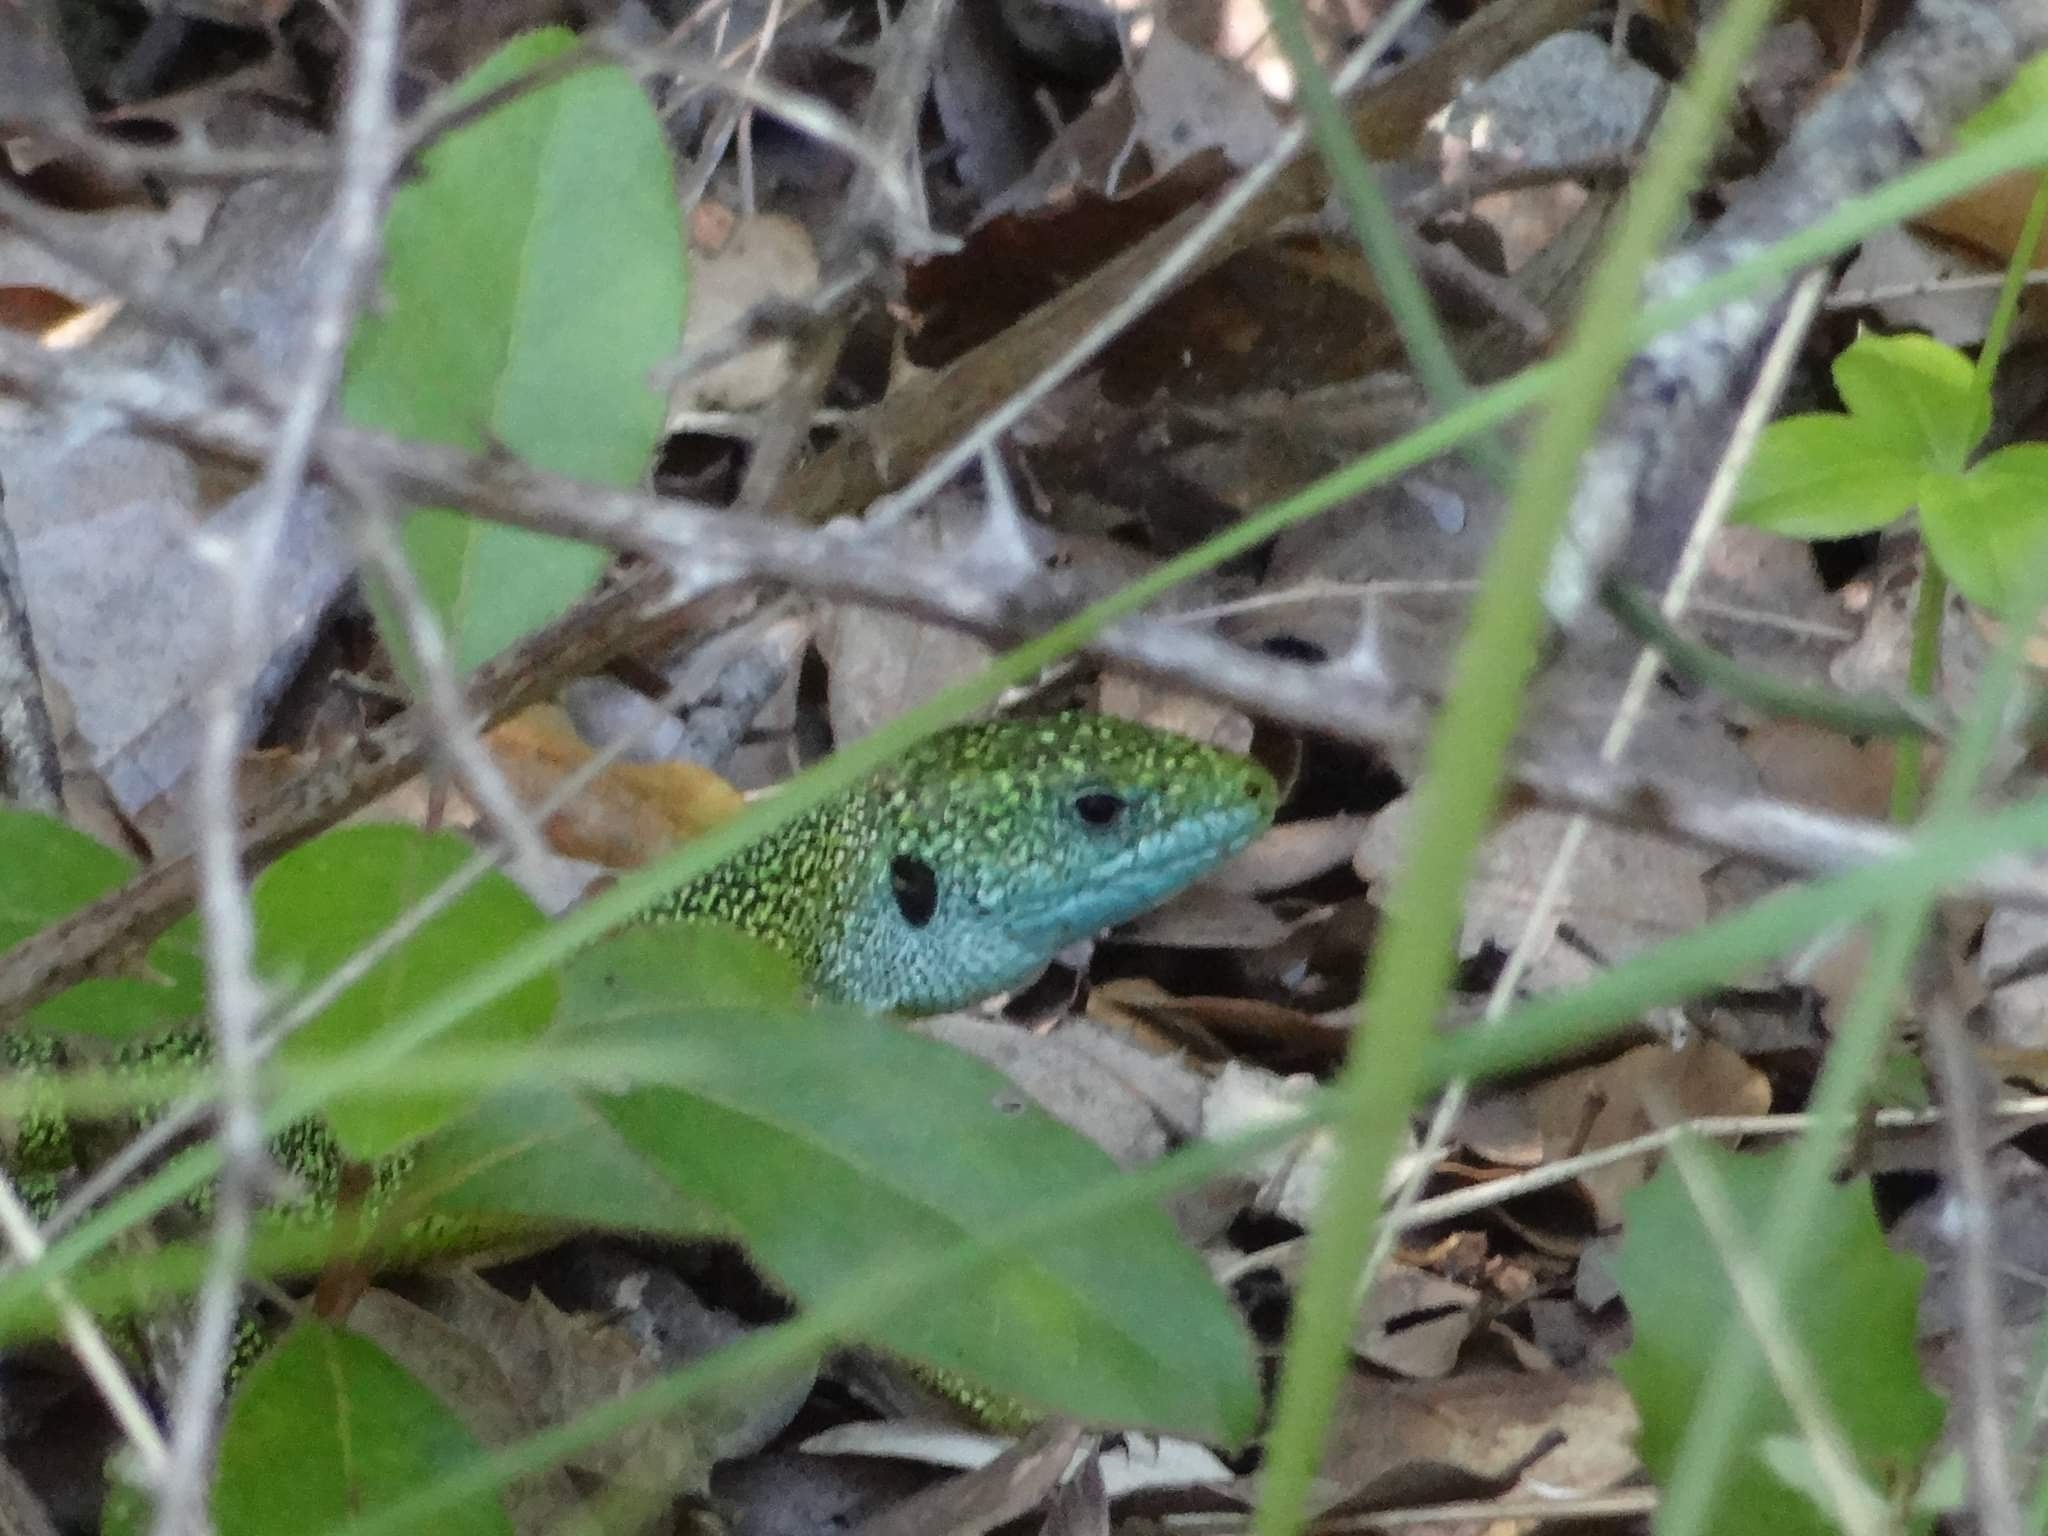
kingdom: Animalia
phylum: Chordata
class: Squamata
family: Lacertidae
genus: Lacerta
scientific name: Lacerta bilineata
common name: Western green lizard
